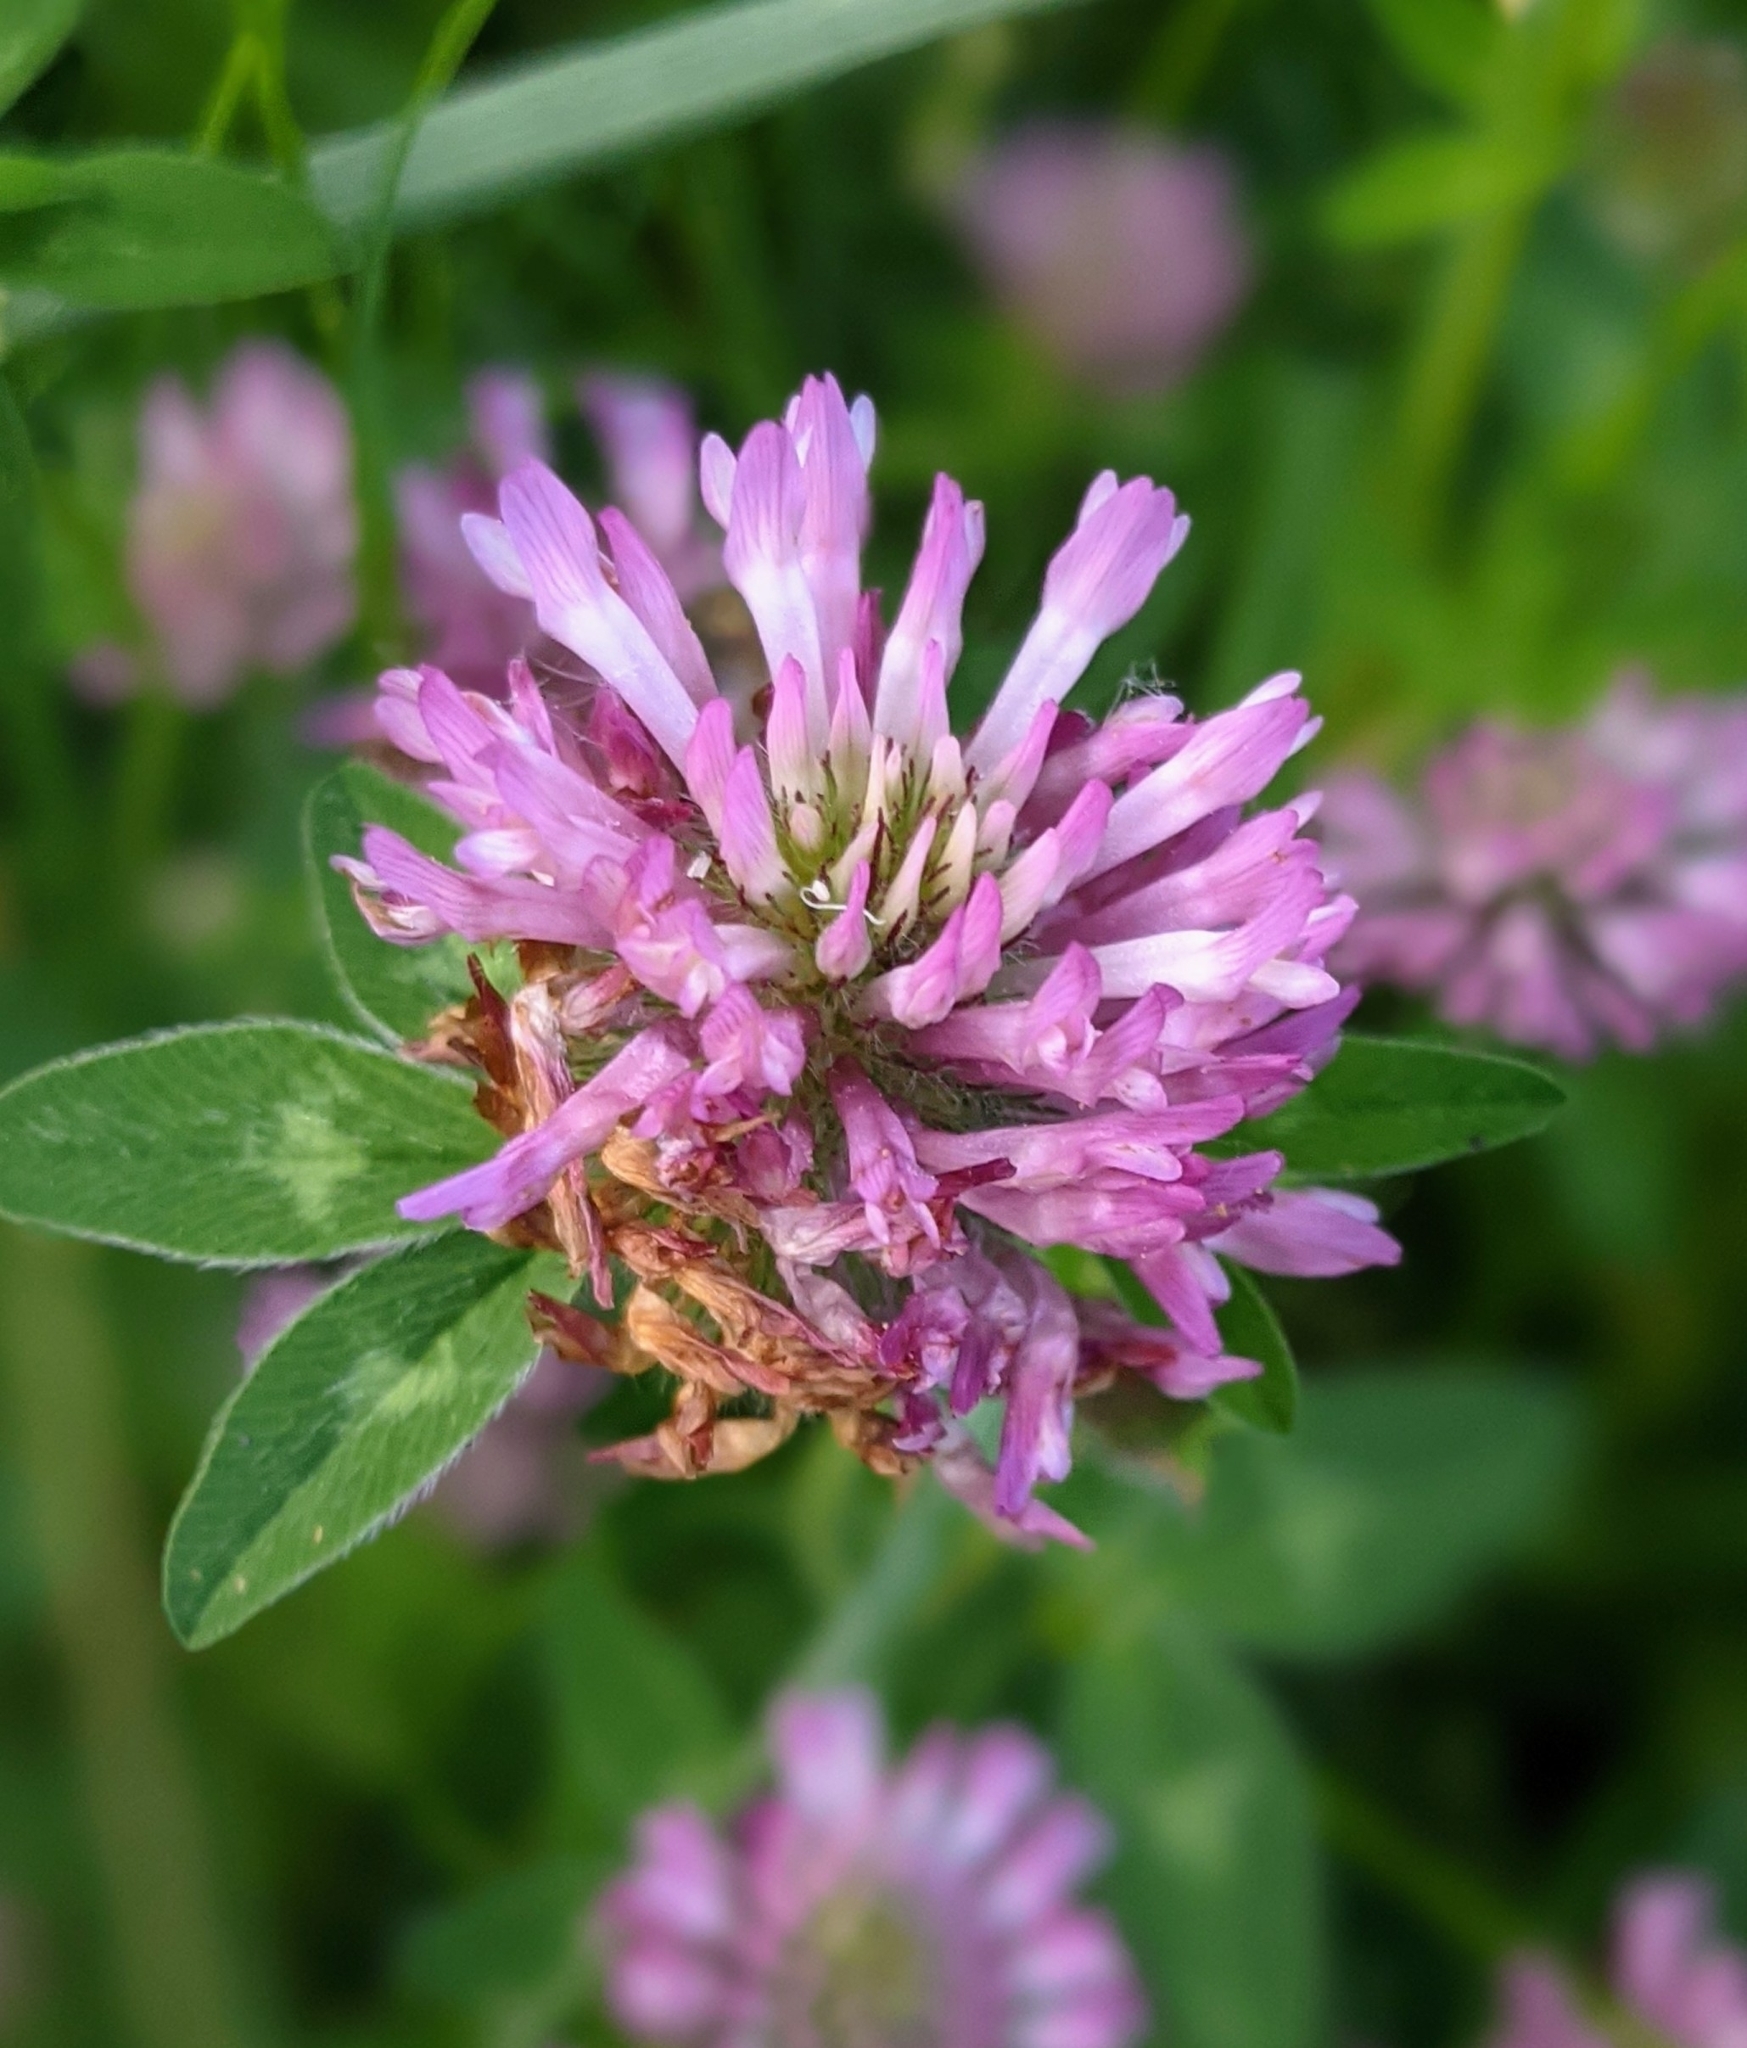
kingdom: Plantae
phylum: Tracheophyta
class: Magnoliopsida
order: Fabales
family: Fabaceae
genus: Trifolium
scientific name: Trifolium pratense
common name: Red clover
